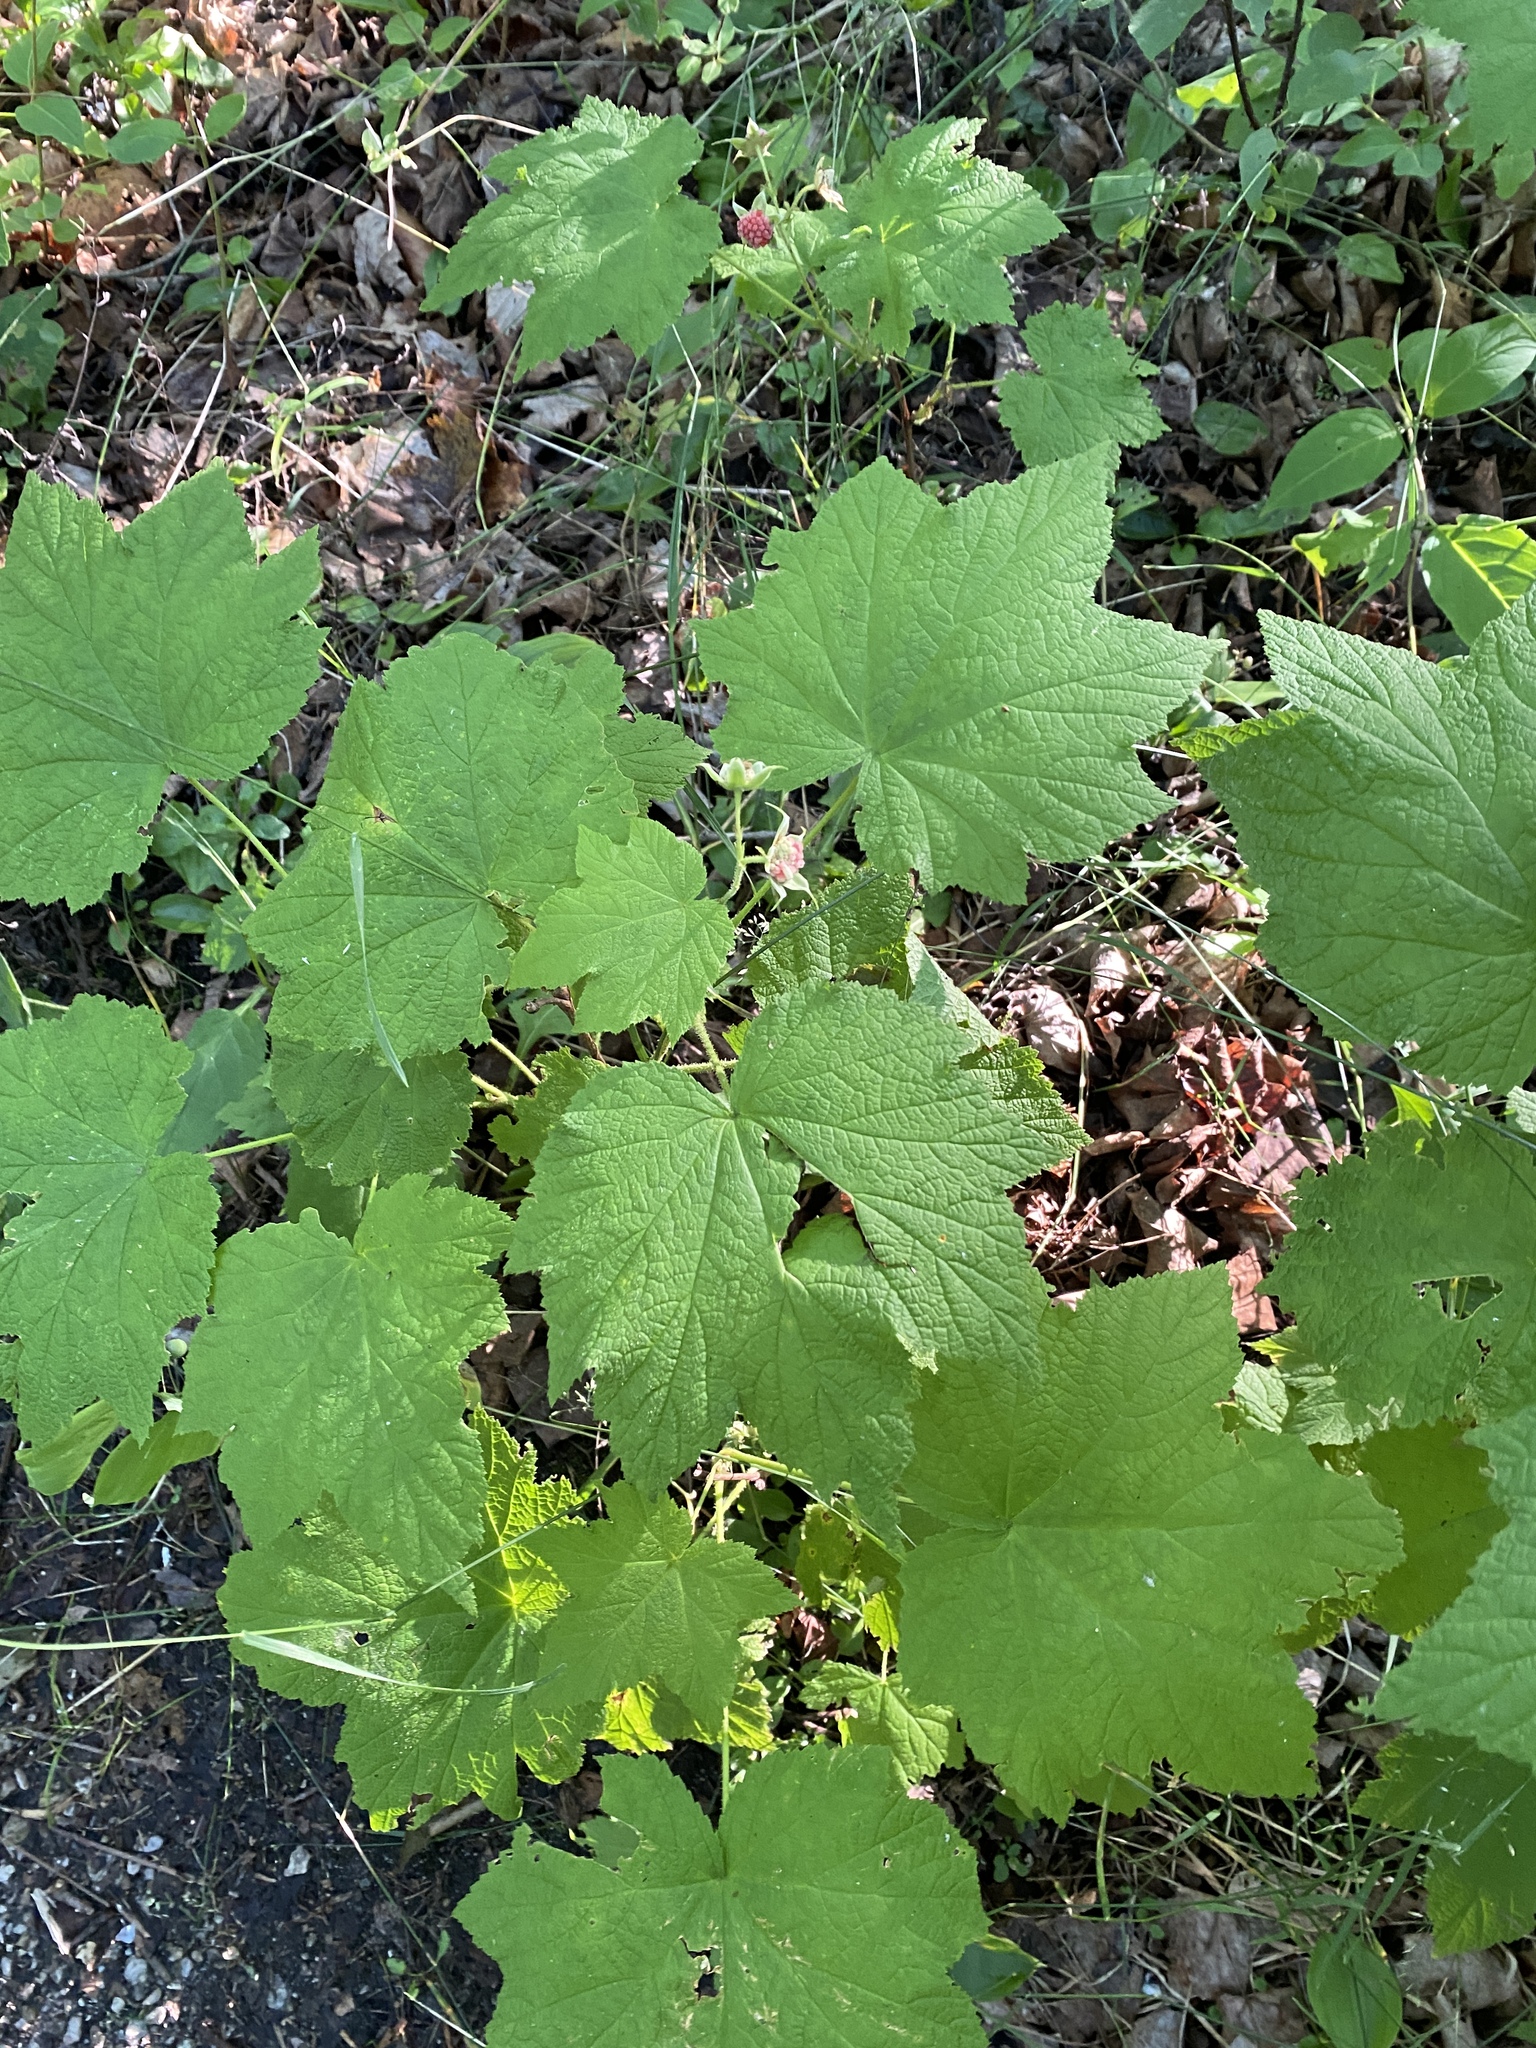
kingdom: Plantae
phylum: Tracheophyta
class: Magnoliopsida
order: Rosales
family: Rosaceae
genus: Rubus
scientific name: Rubus parviflorus
